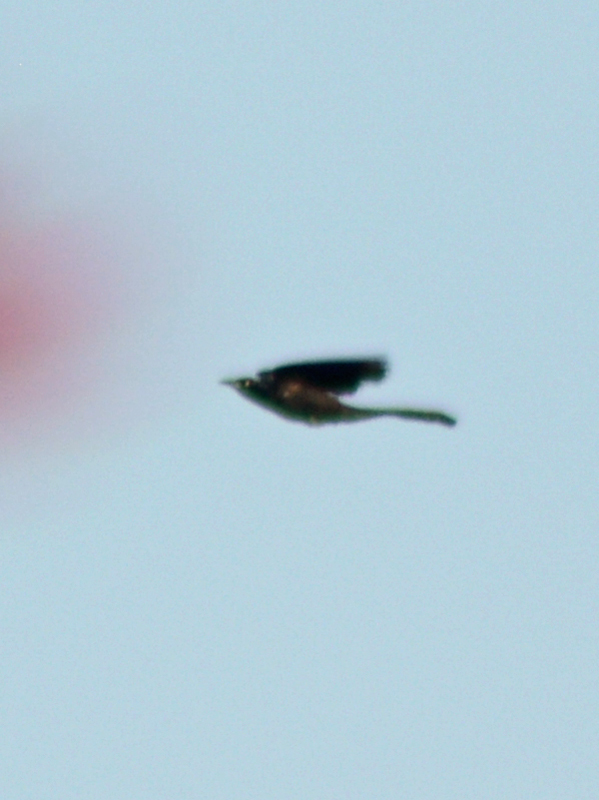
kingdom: Animalia
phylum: Chordata
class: Aves
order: Passeriformes
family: Icteridae
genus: Quiscalus
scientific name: Quiscalus mexicanus
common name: Great-tailed grackle
